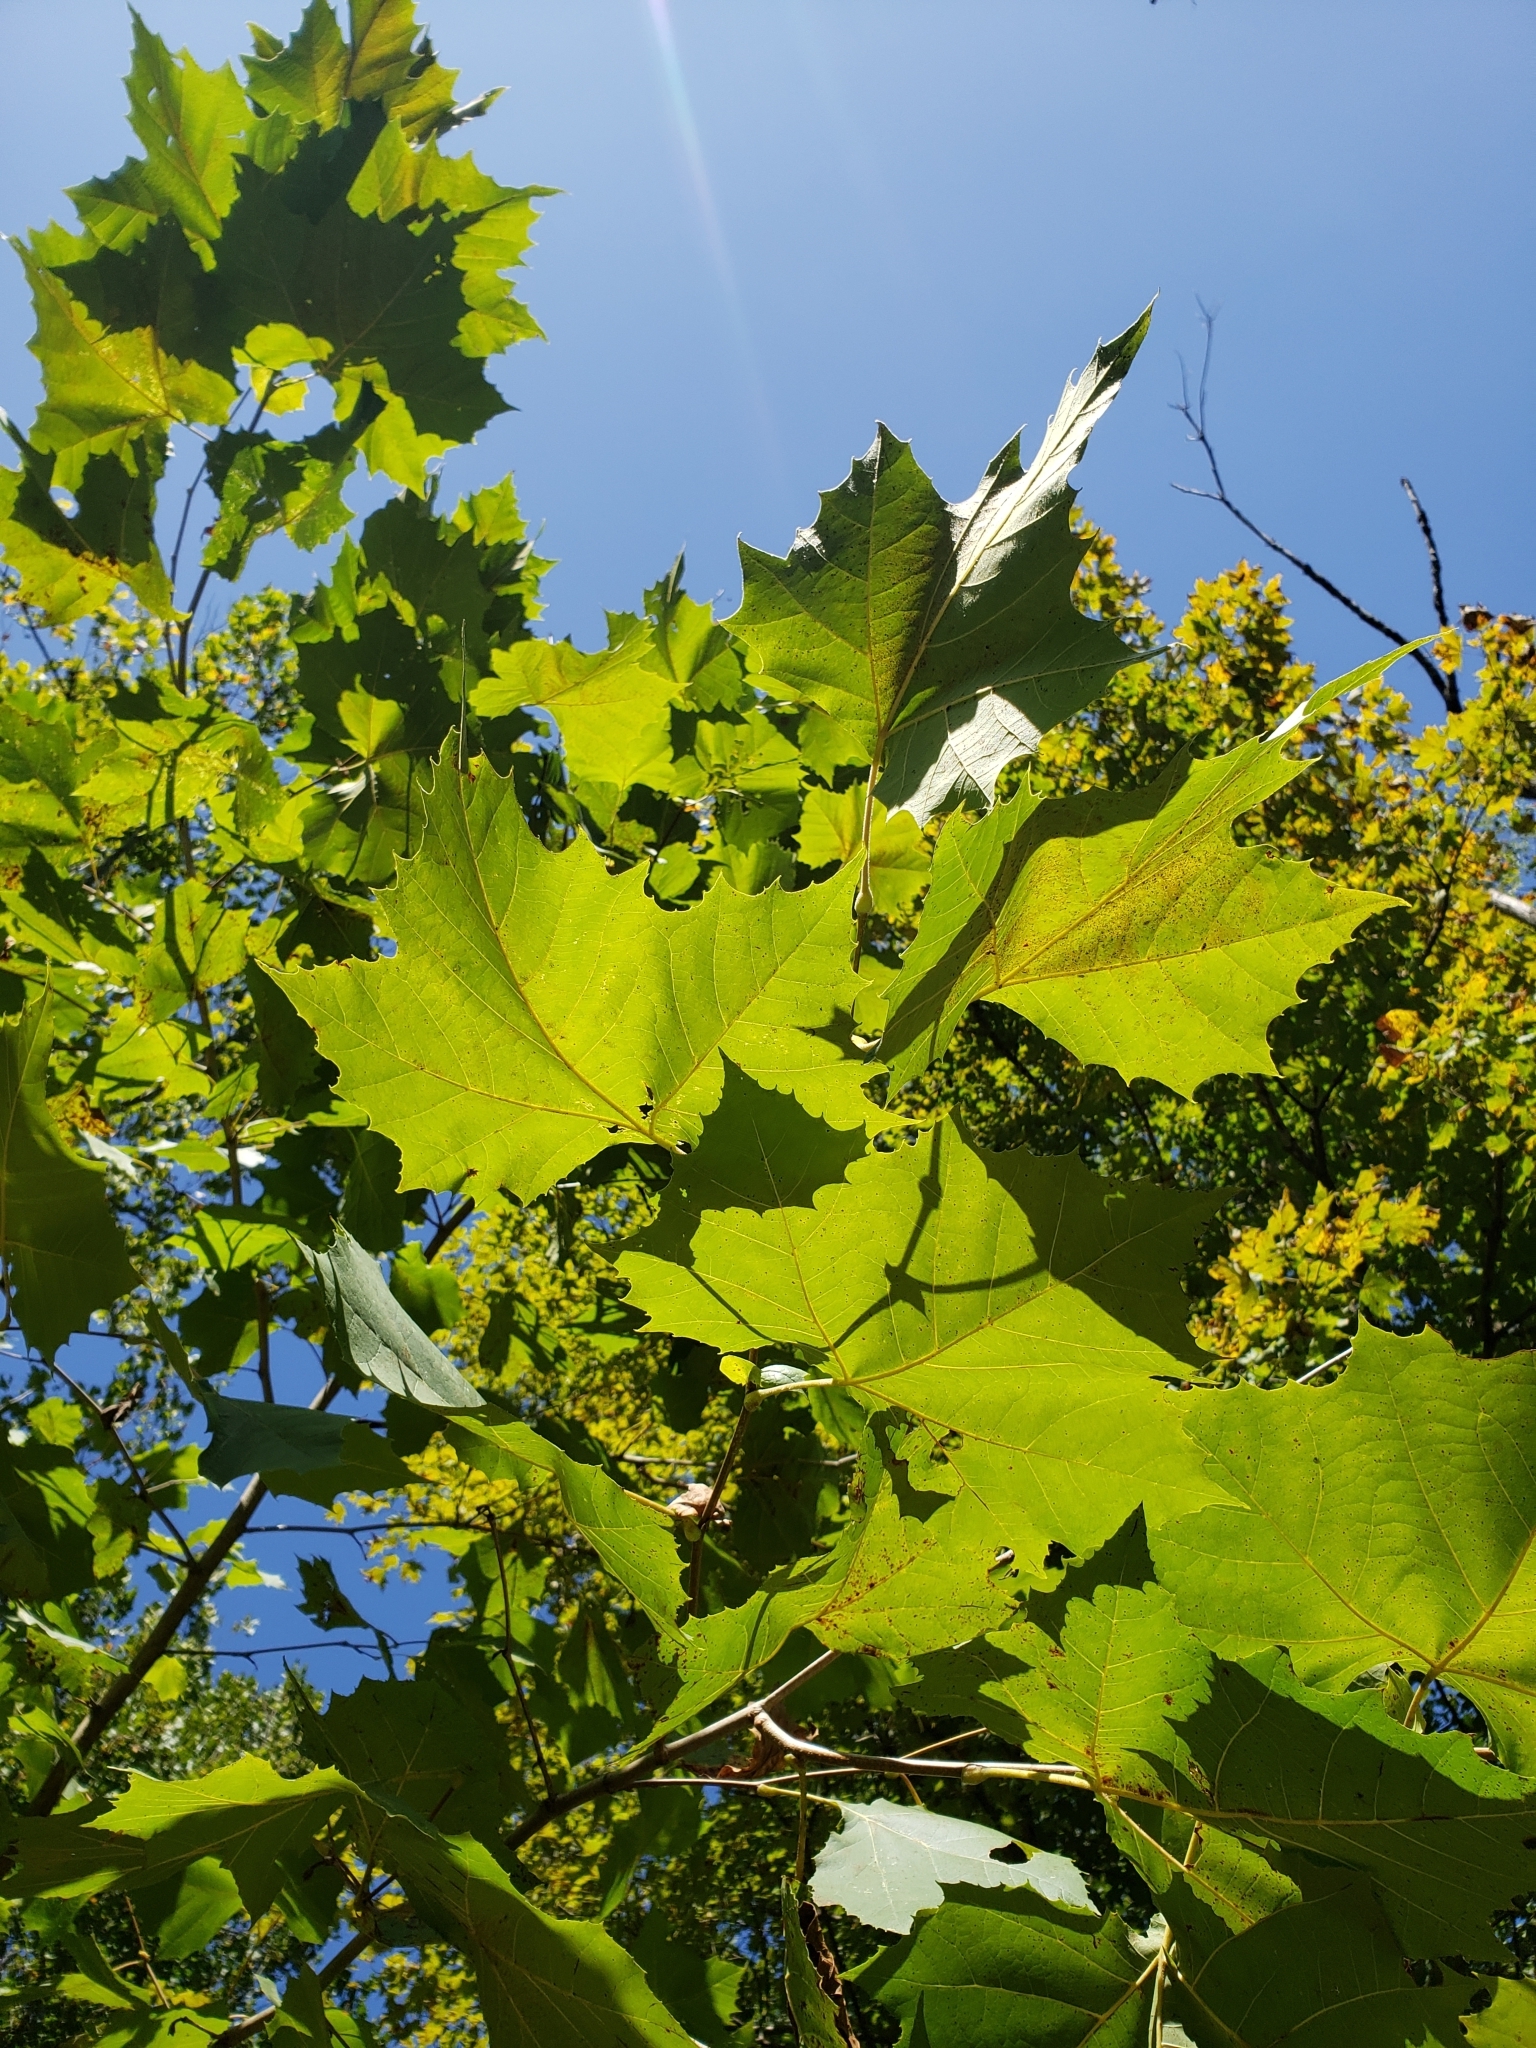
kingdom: Plantae
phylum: Tracheophyta
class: Magnoliopsida
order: Proteales
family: Platanaceae
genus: Platanus
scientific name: Platanus occidentalis
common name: American sycamore
